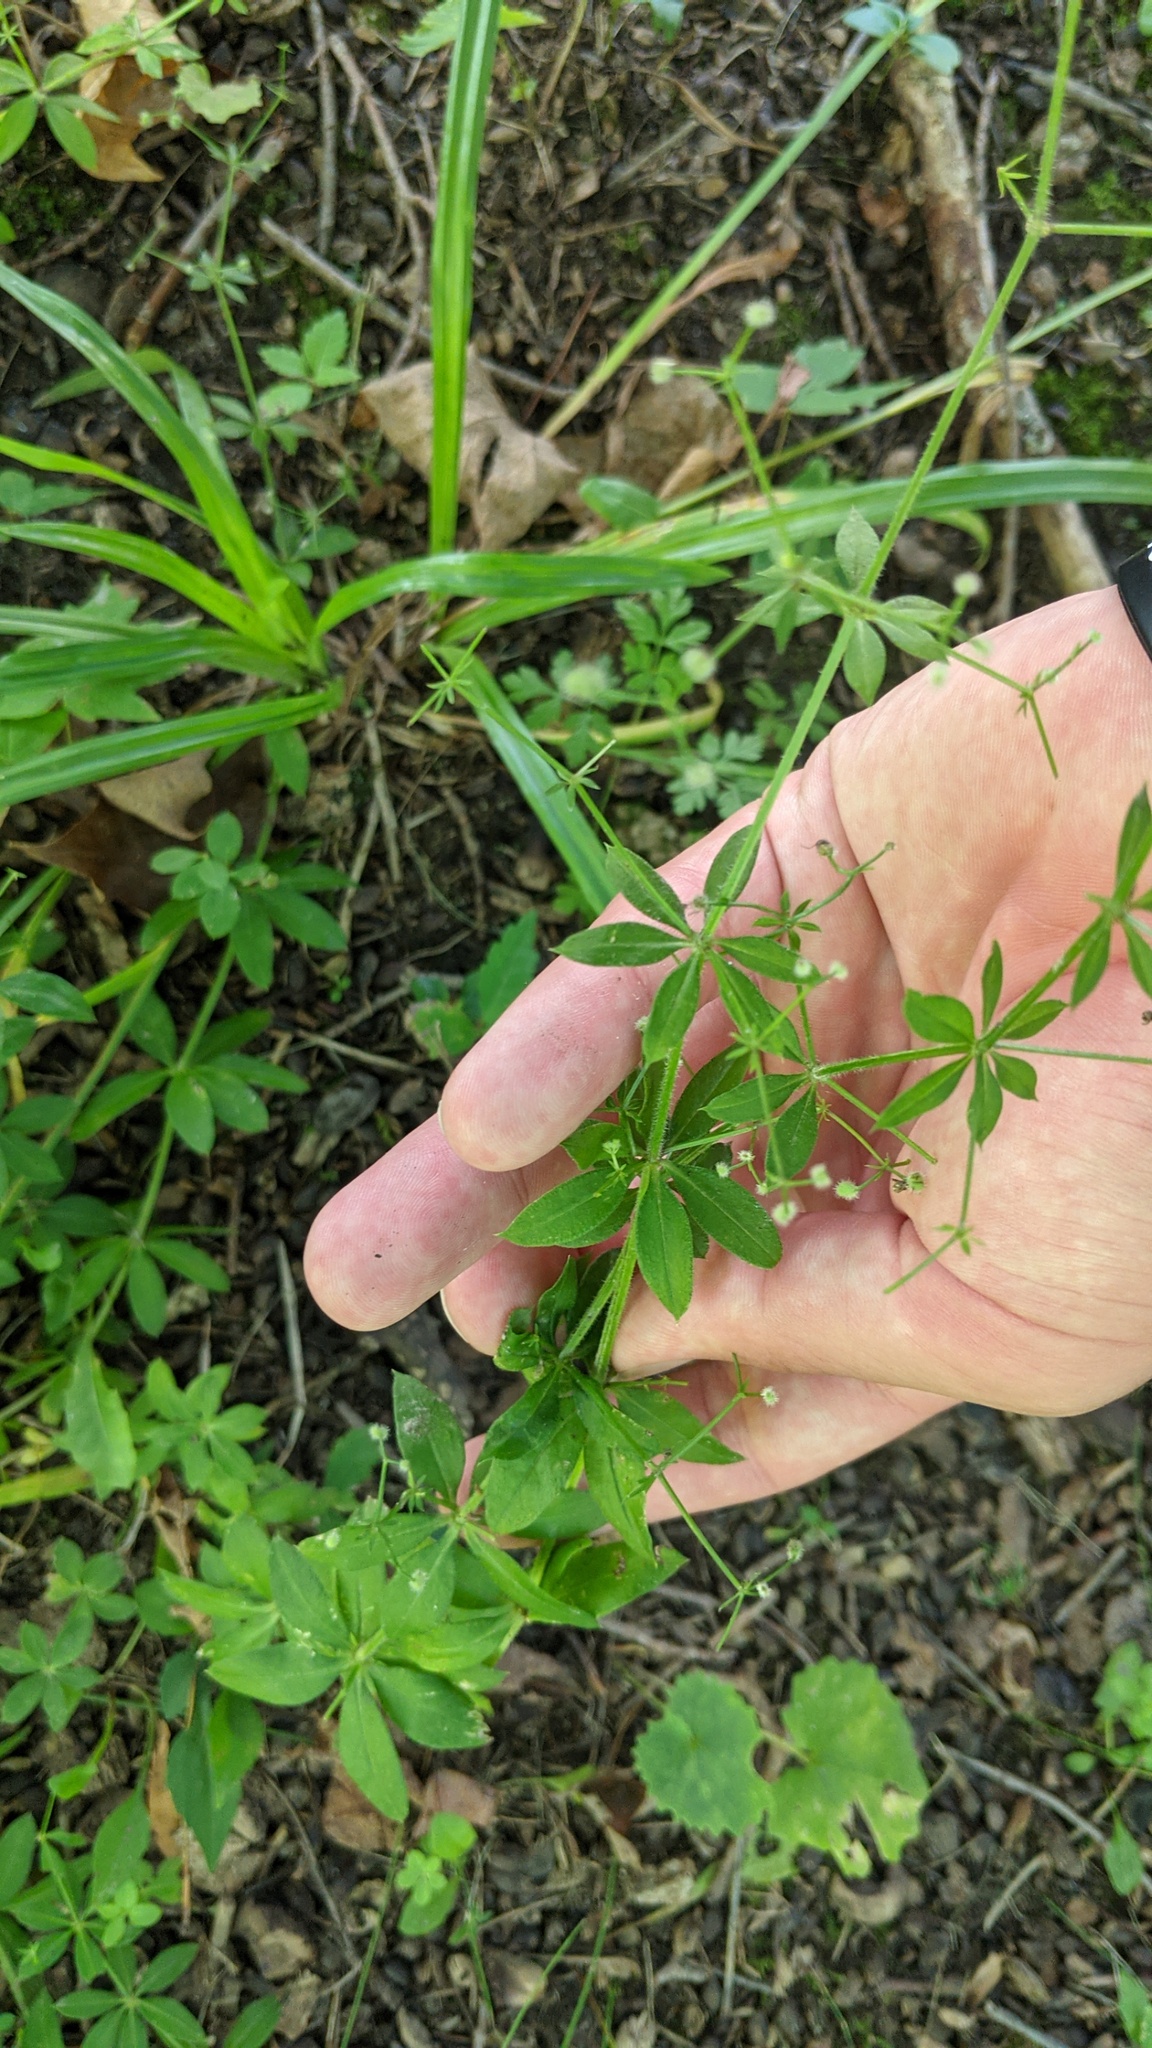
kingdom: Plantae
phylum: Tracheophyta
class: Magnoliopsida
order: Gentianales
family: Rubiaceae
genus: Galium
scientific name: Galium triflorum
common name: Fragrant bedstraw
